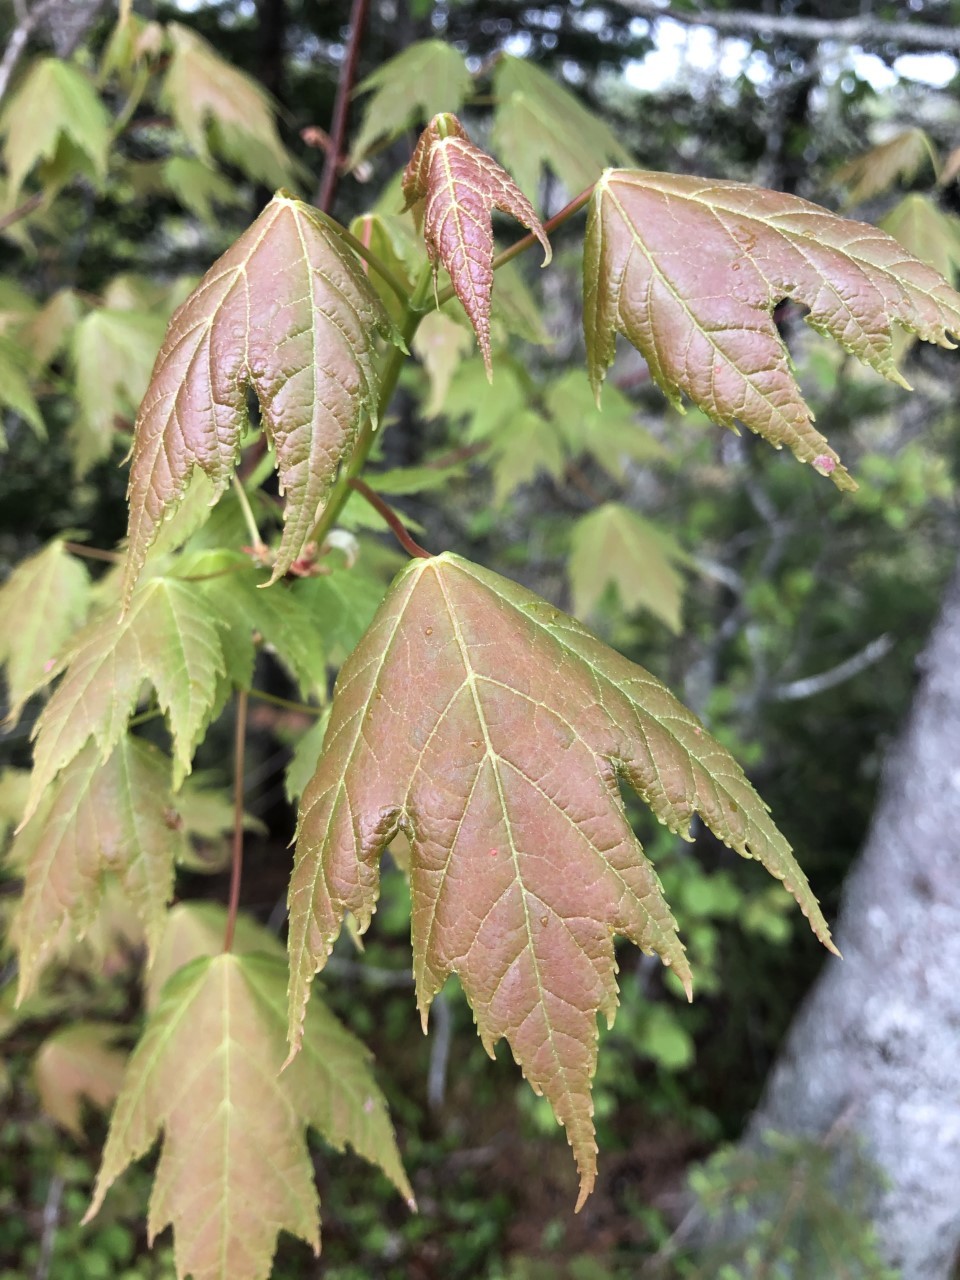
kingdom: Plantae
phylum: Tracheophyta
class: Magnoliopsida
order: Sapindales
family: Sapindaceae
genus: Acer
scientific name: Acer rubrum
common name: Red maple
